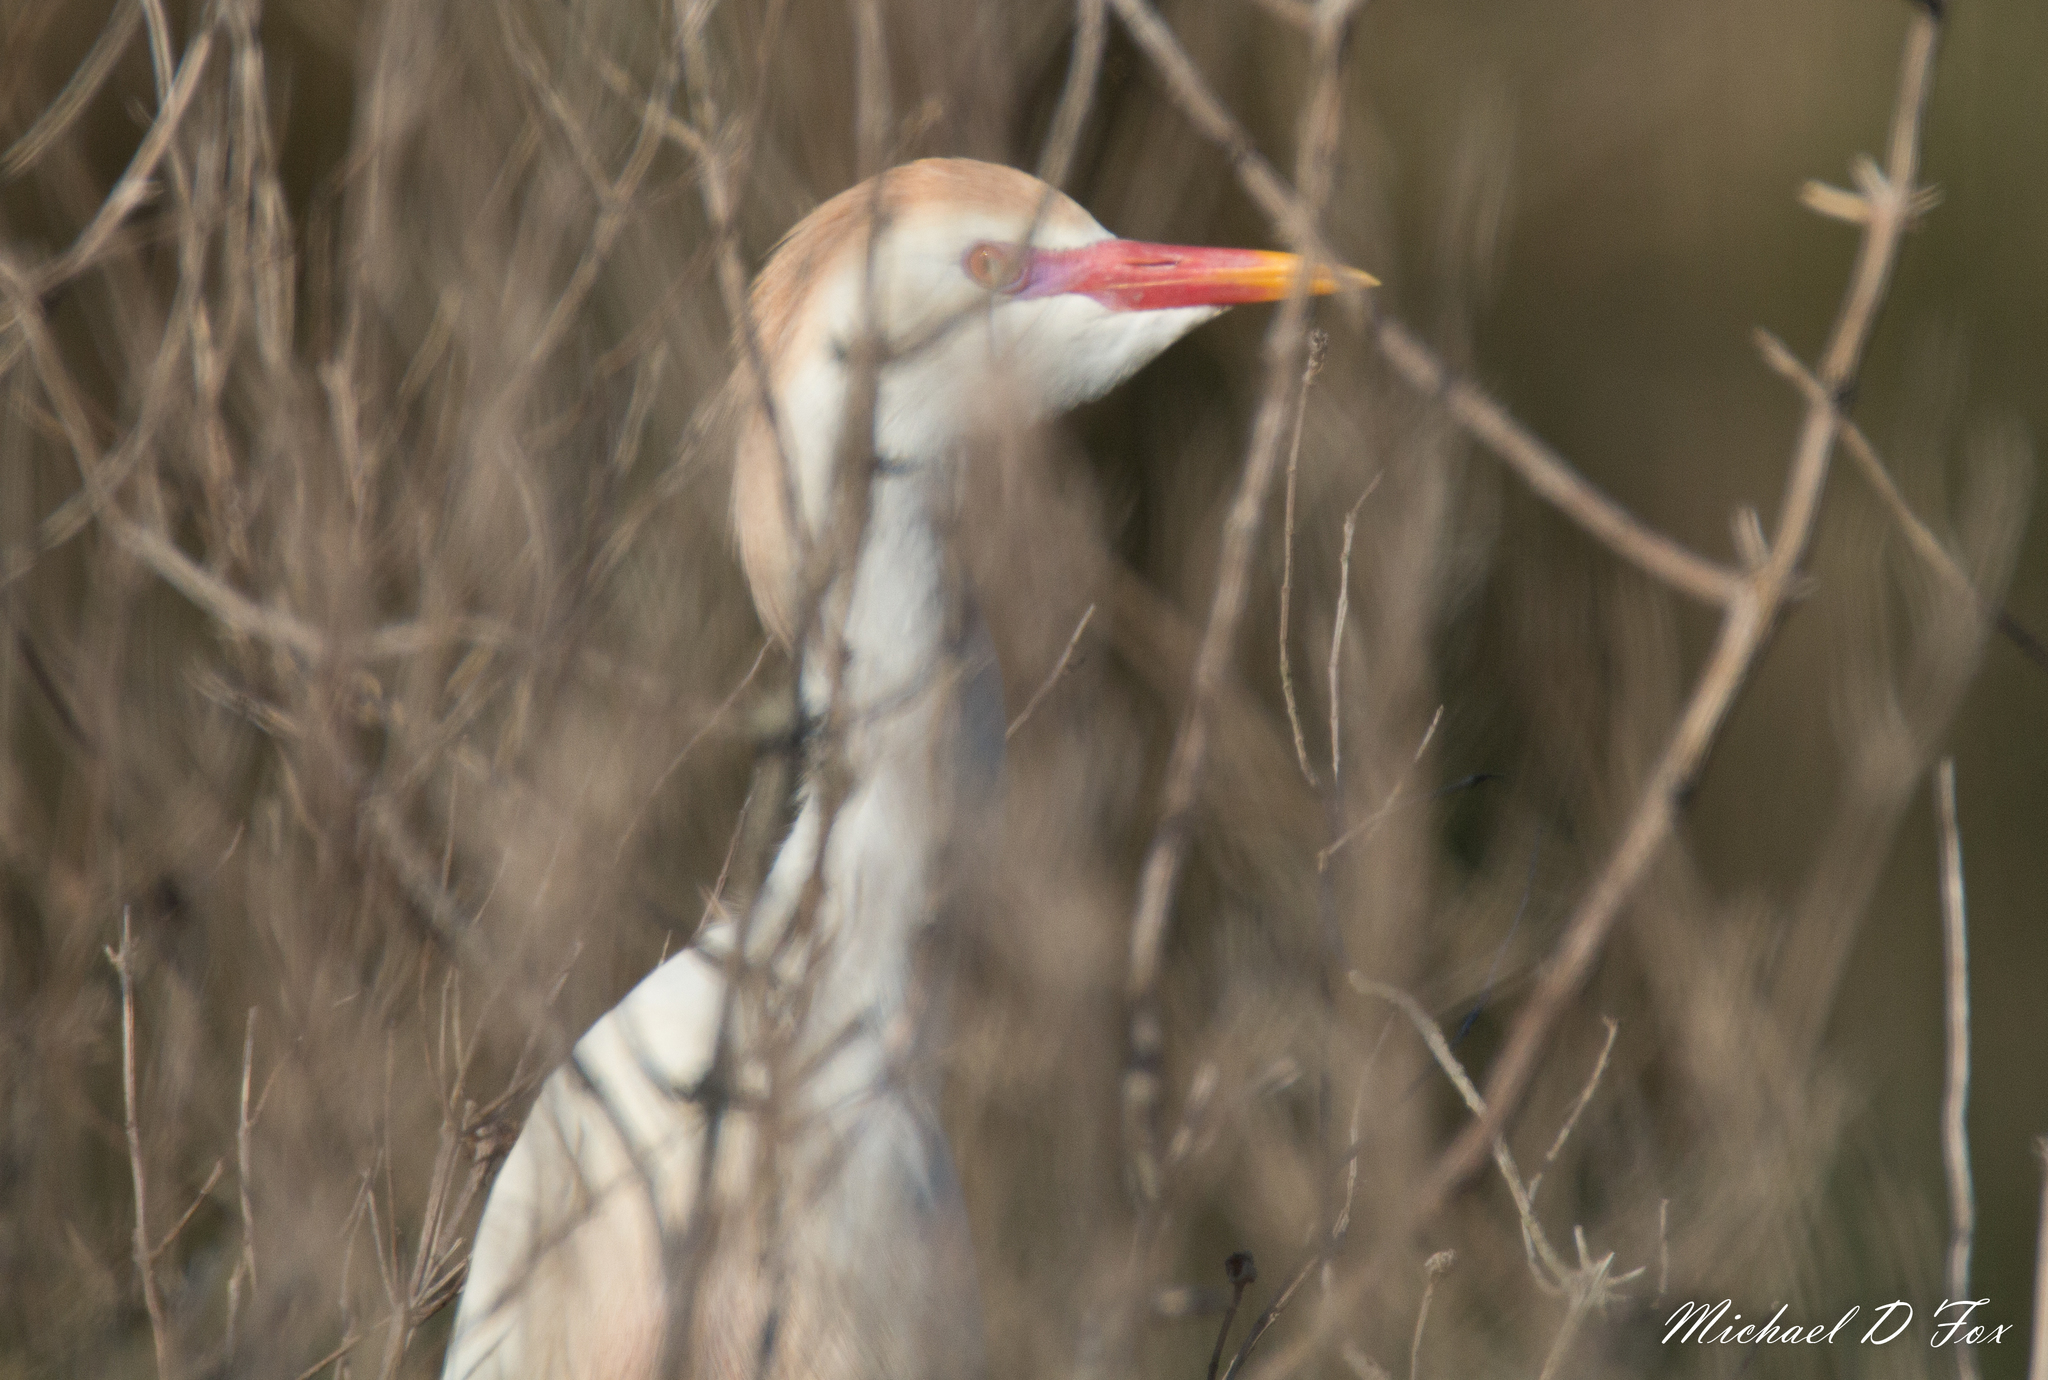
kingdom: Animalia
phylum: Chordata
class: Aves
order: Pelecaniformes
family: Ardeidae
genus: Bubulcus
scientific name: Bubulcus ibis
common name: Cattle egret
